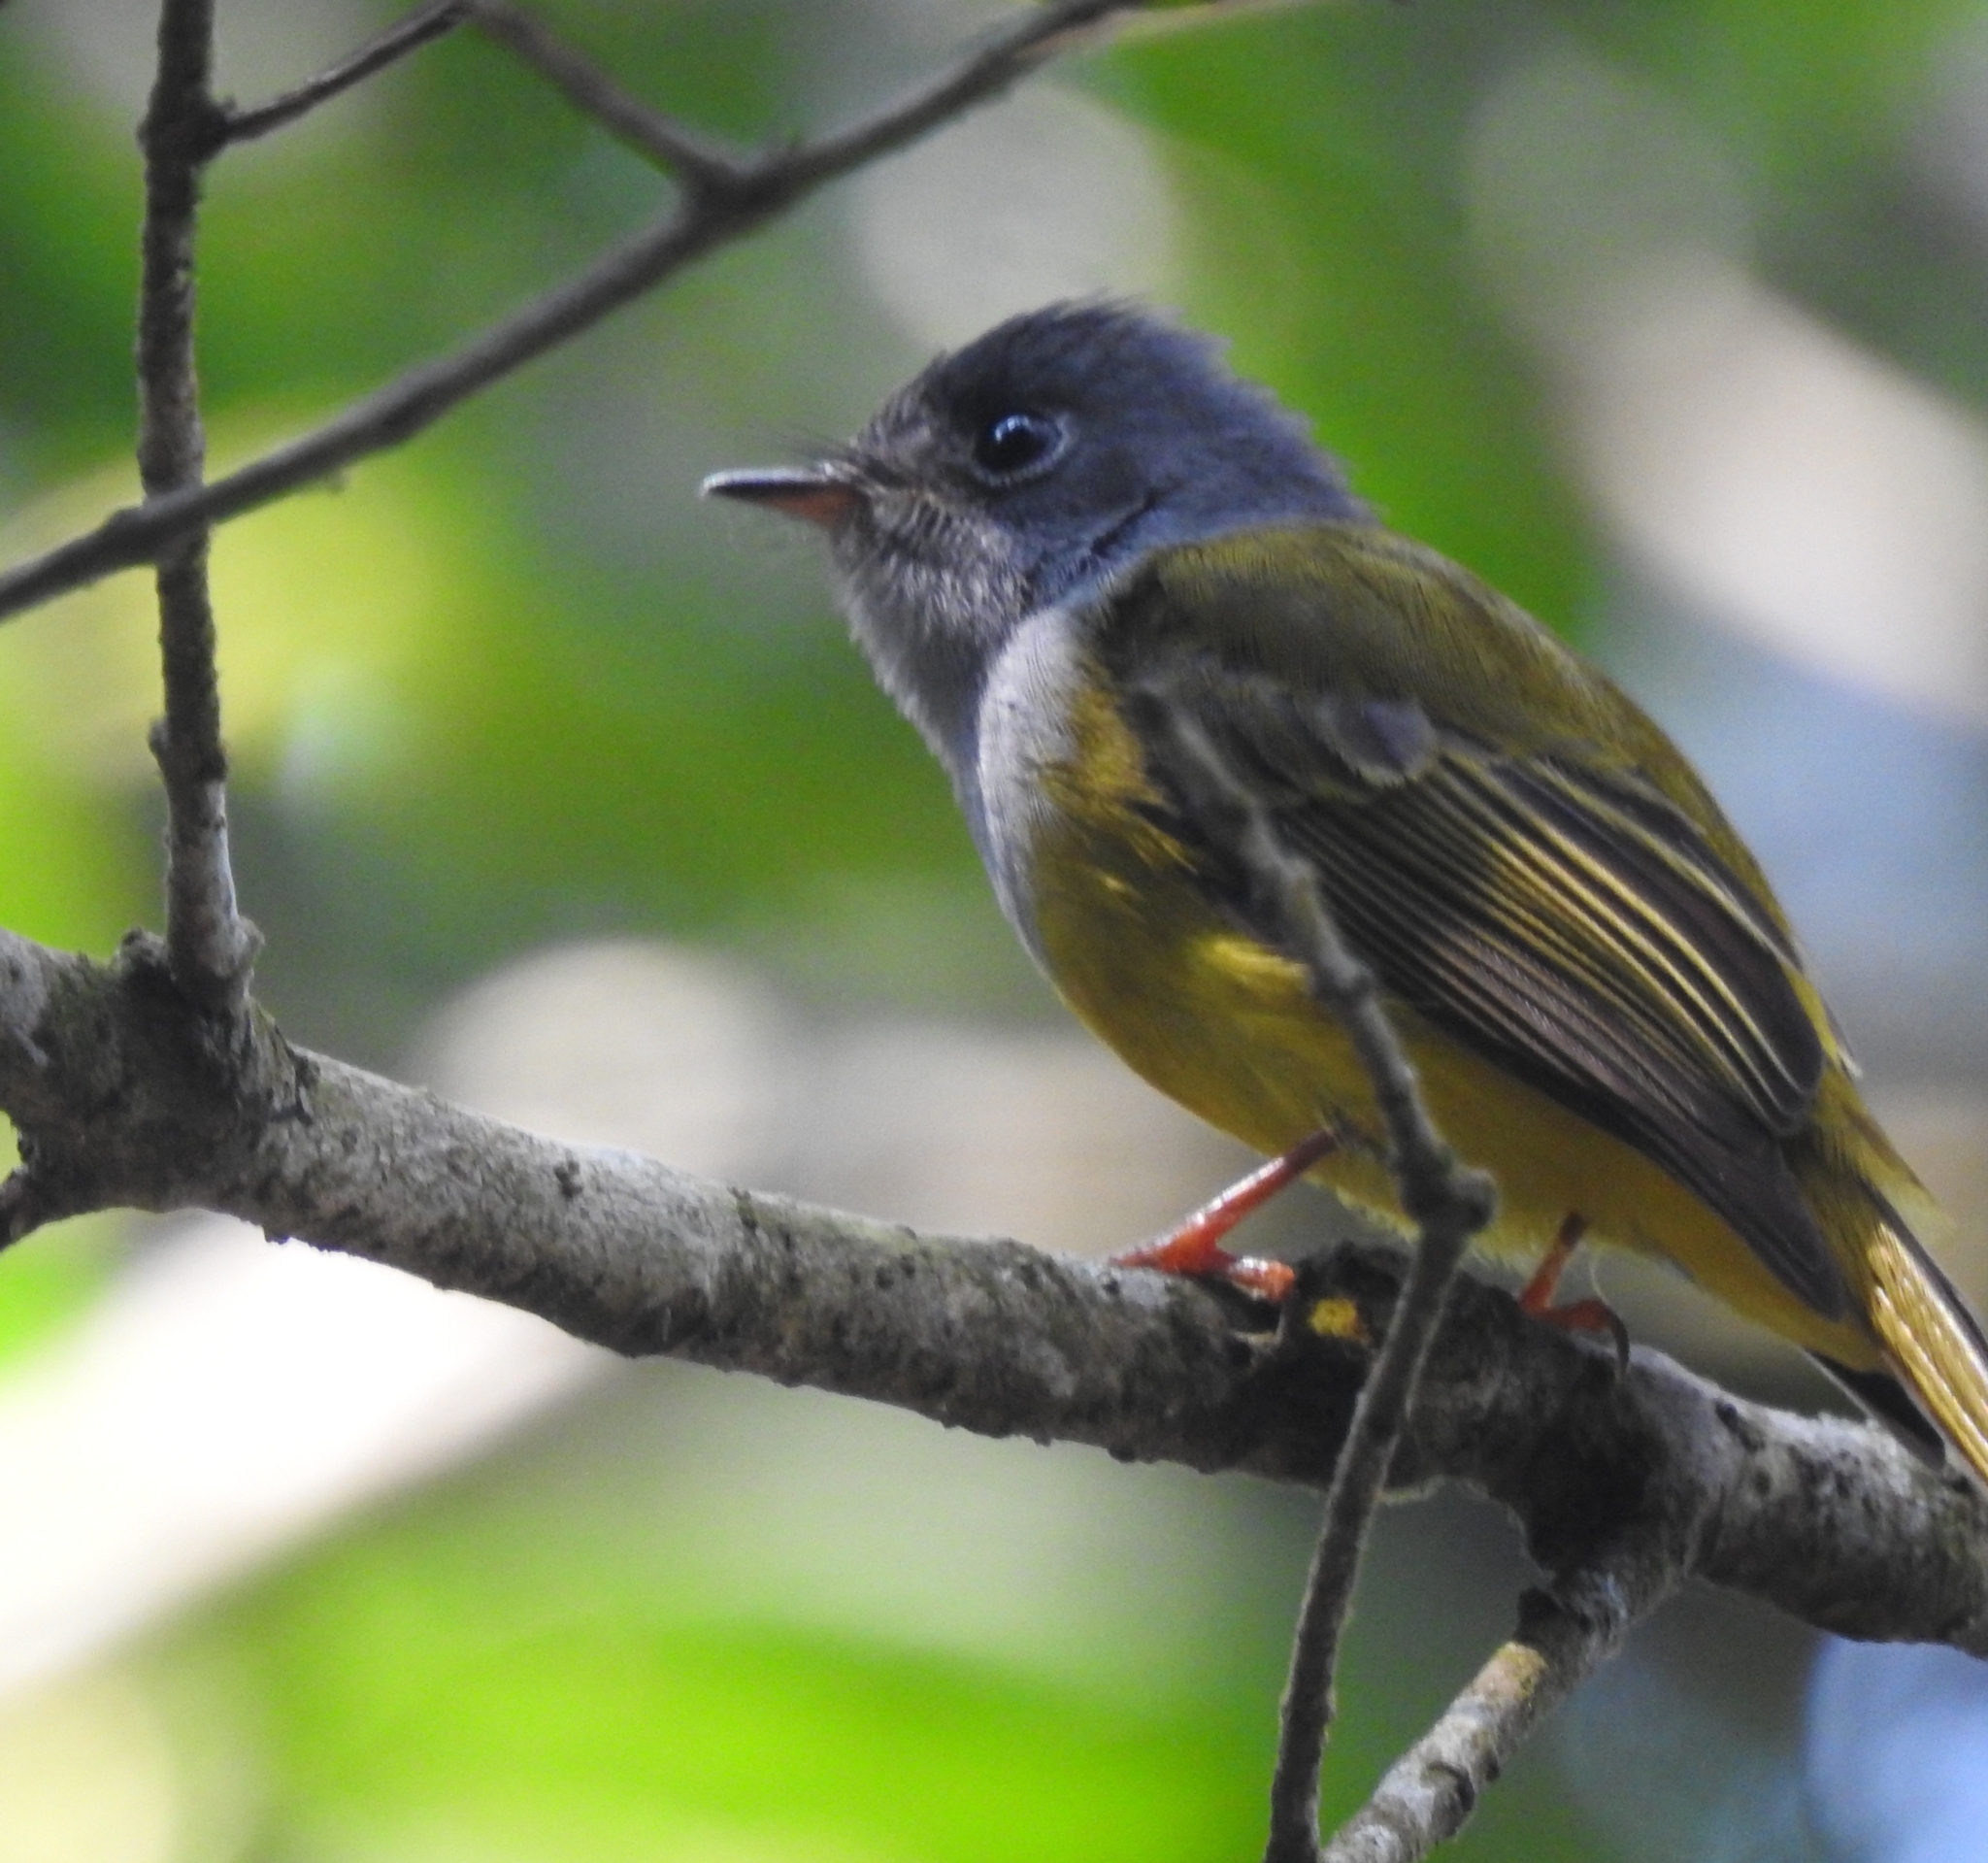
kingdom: Animalia
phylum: Chordata
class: Aves
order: Passeriformes
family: Stenostiridae
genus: Culicicapa
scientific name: Culicicapa ceylonensis
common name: Grey-headed canary-flycatcher
